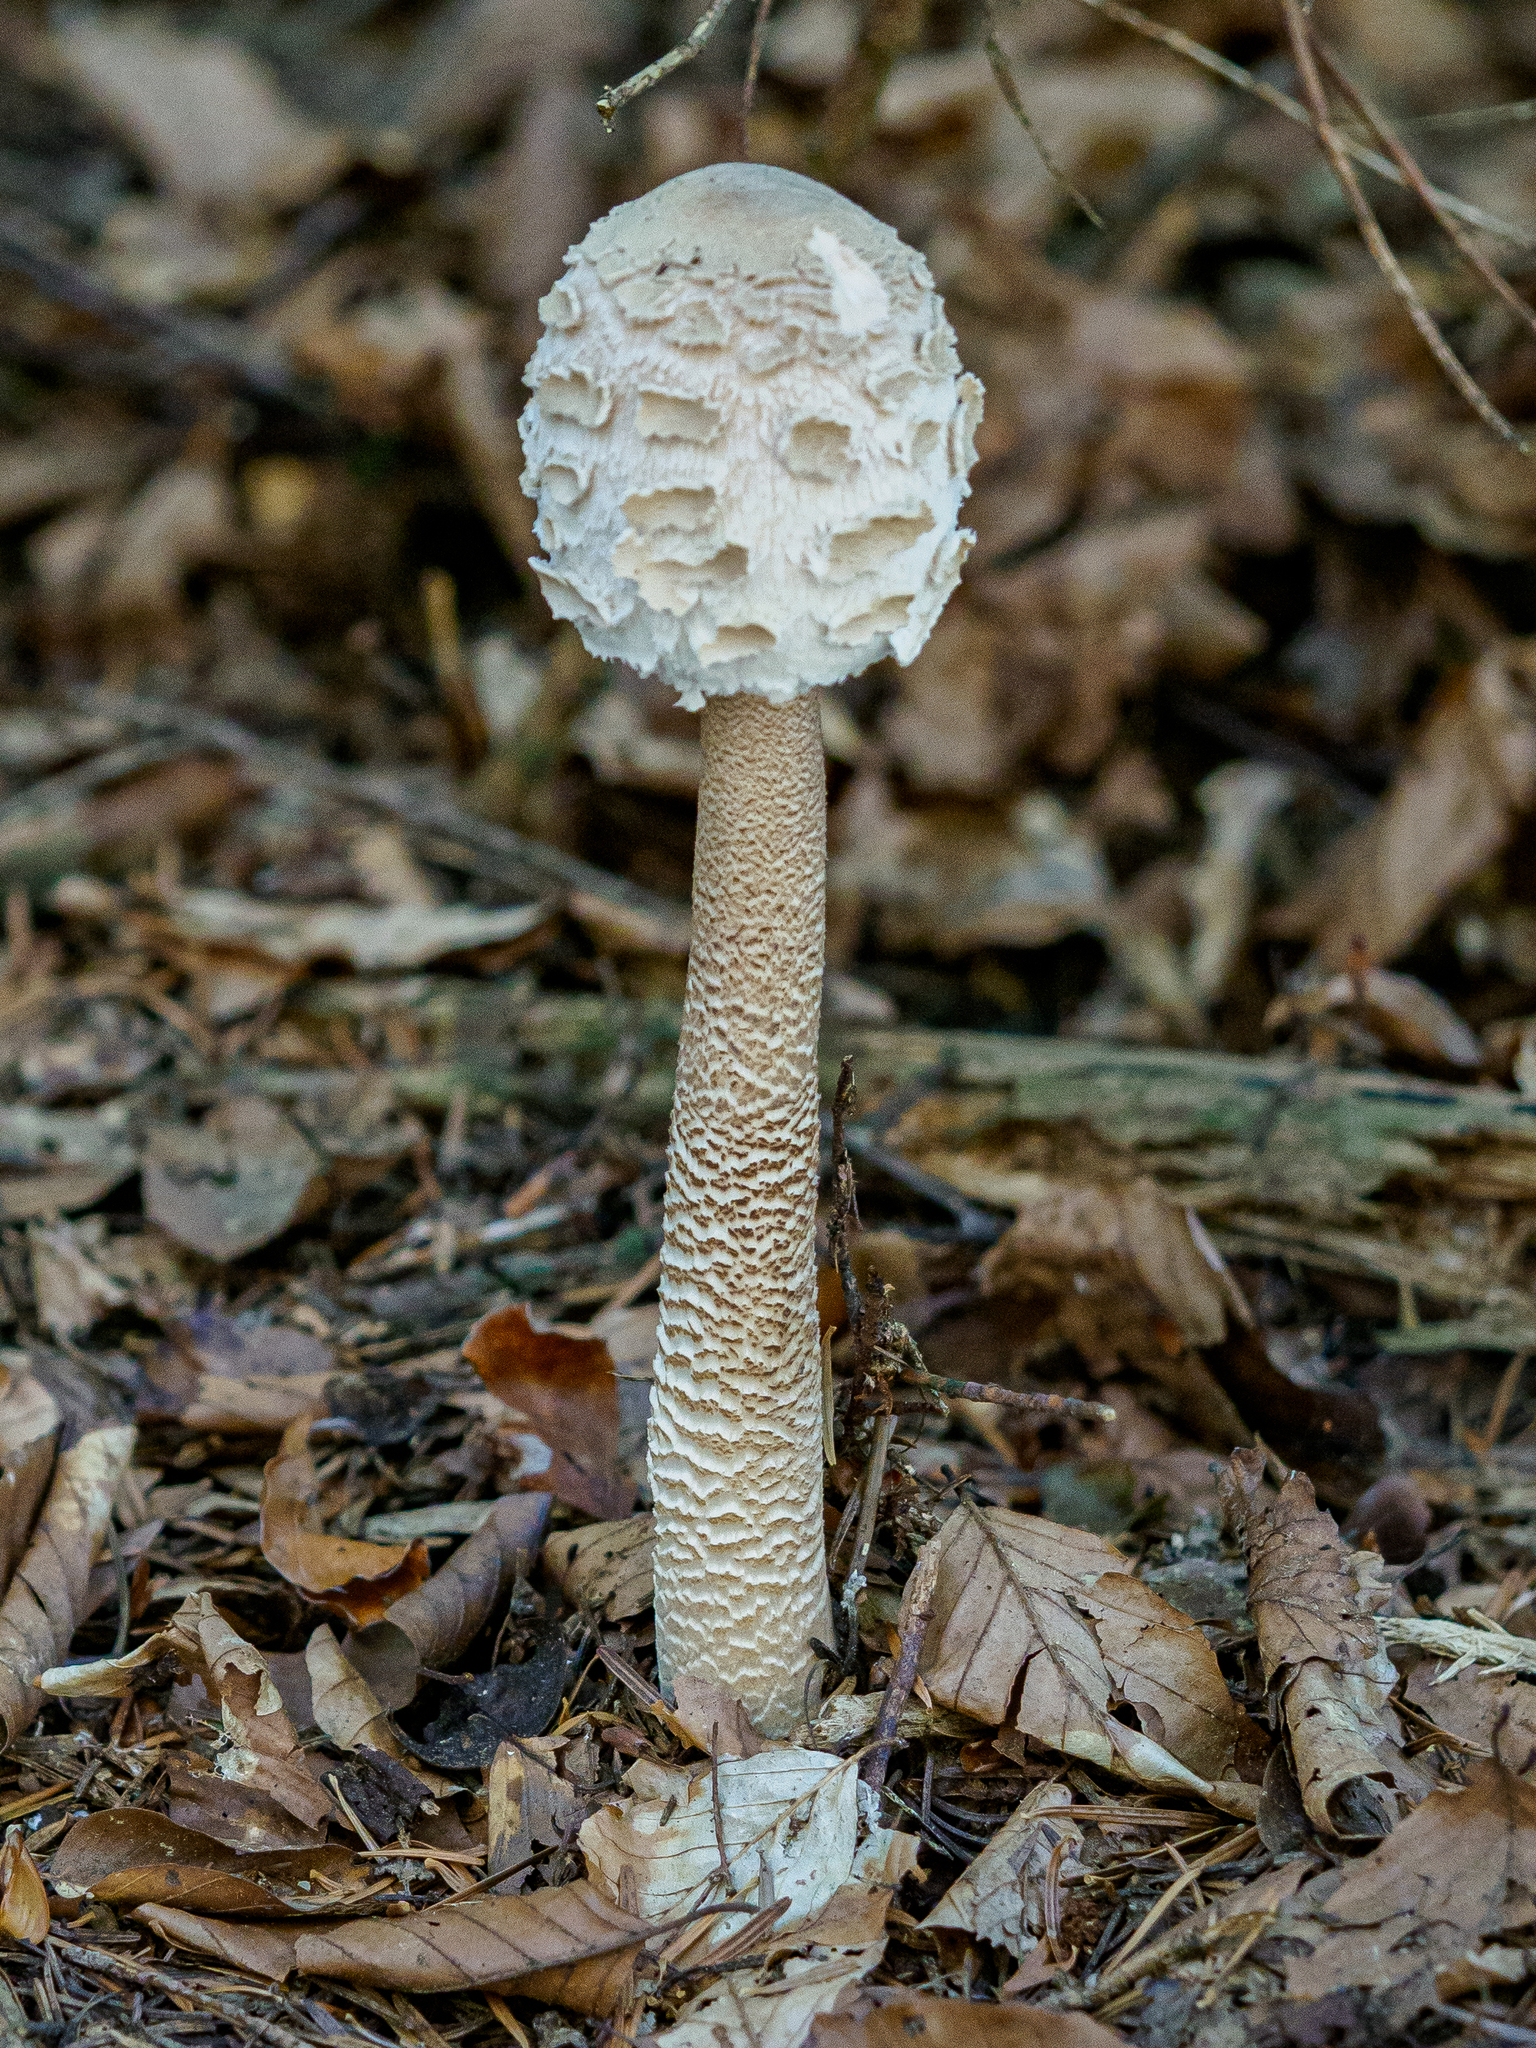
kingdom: Fungi
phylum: Basidiomycota
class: Agaricomycetes
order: Agaricales
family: Agaricaceae
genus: Macrolepiota
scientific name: Macrolepiota procera
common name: Parasol
